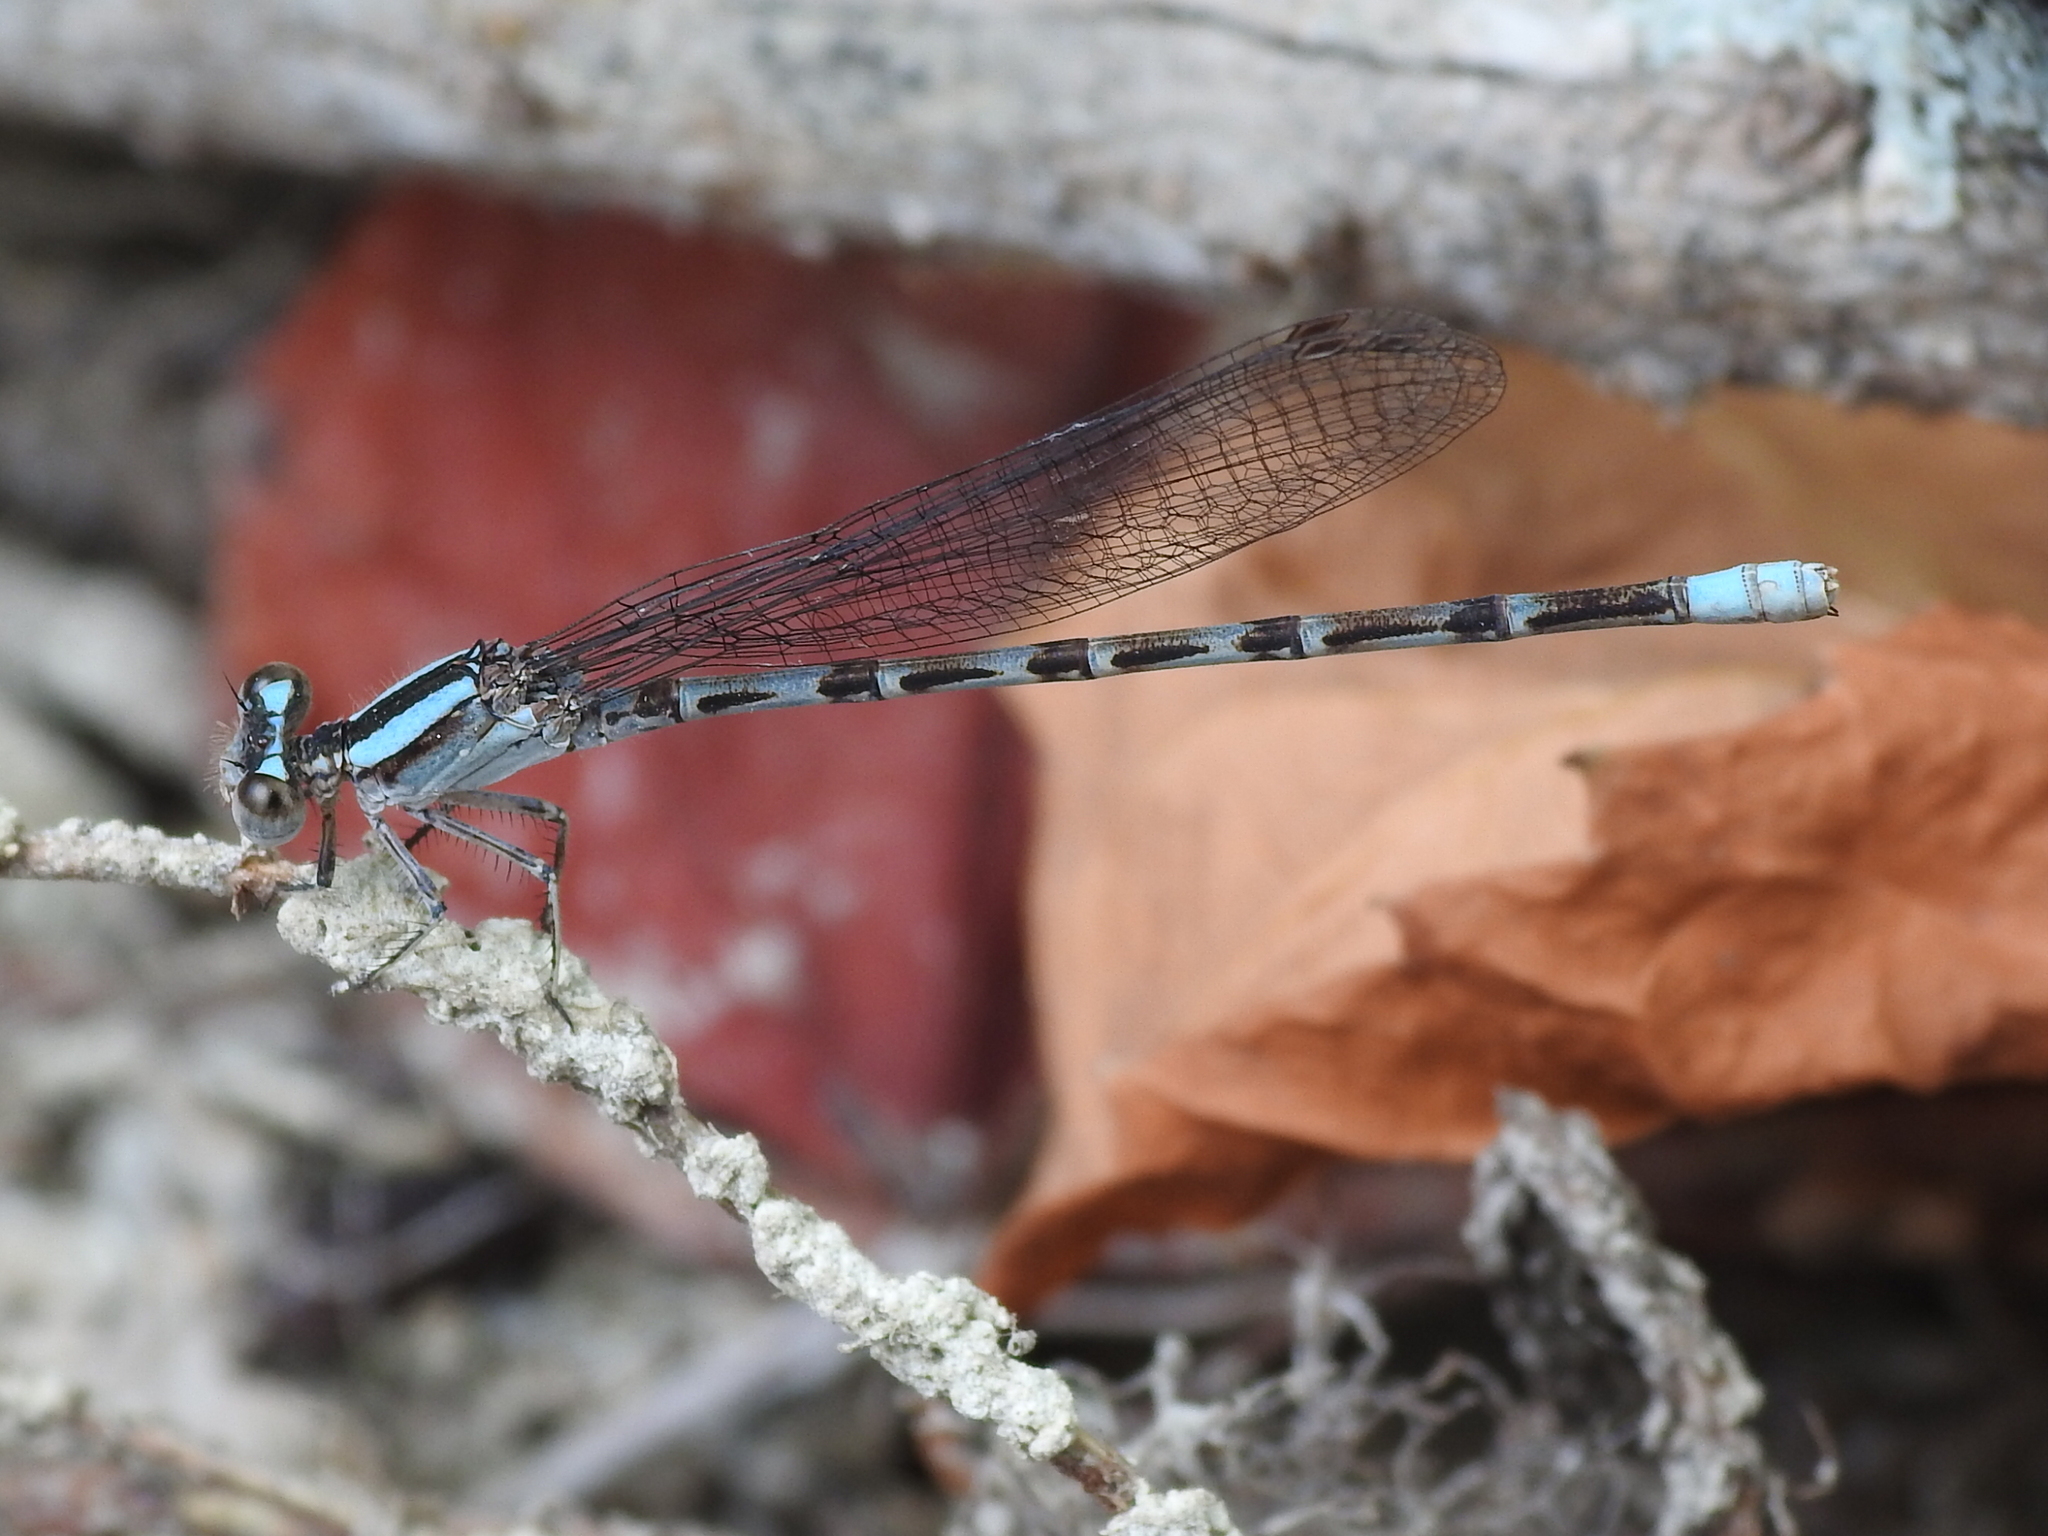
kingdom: Animalia
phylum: Arthropoda
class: Insecta
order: Odonata
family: Coenagrionidae
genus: Argia
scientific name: Argia immunda
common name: Kiowa dancer
